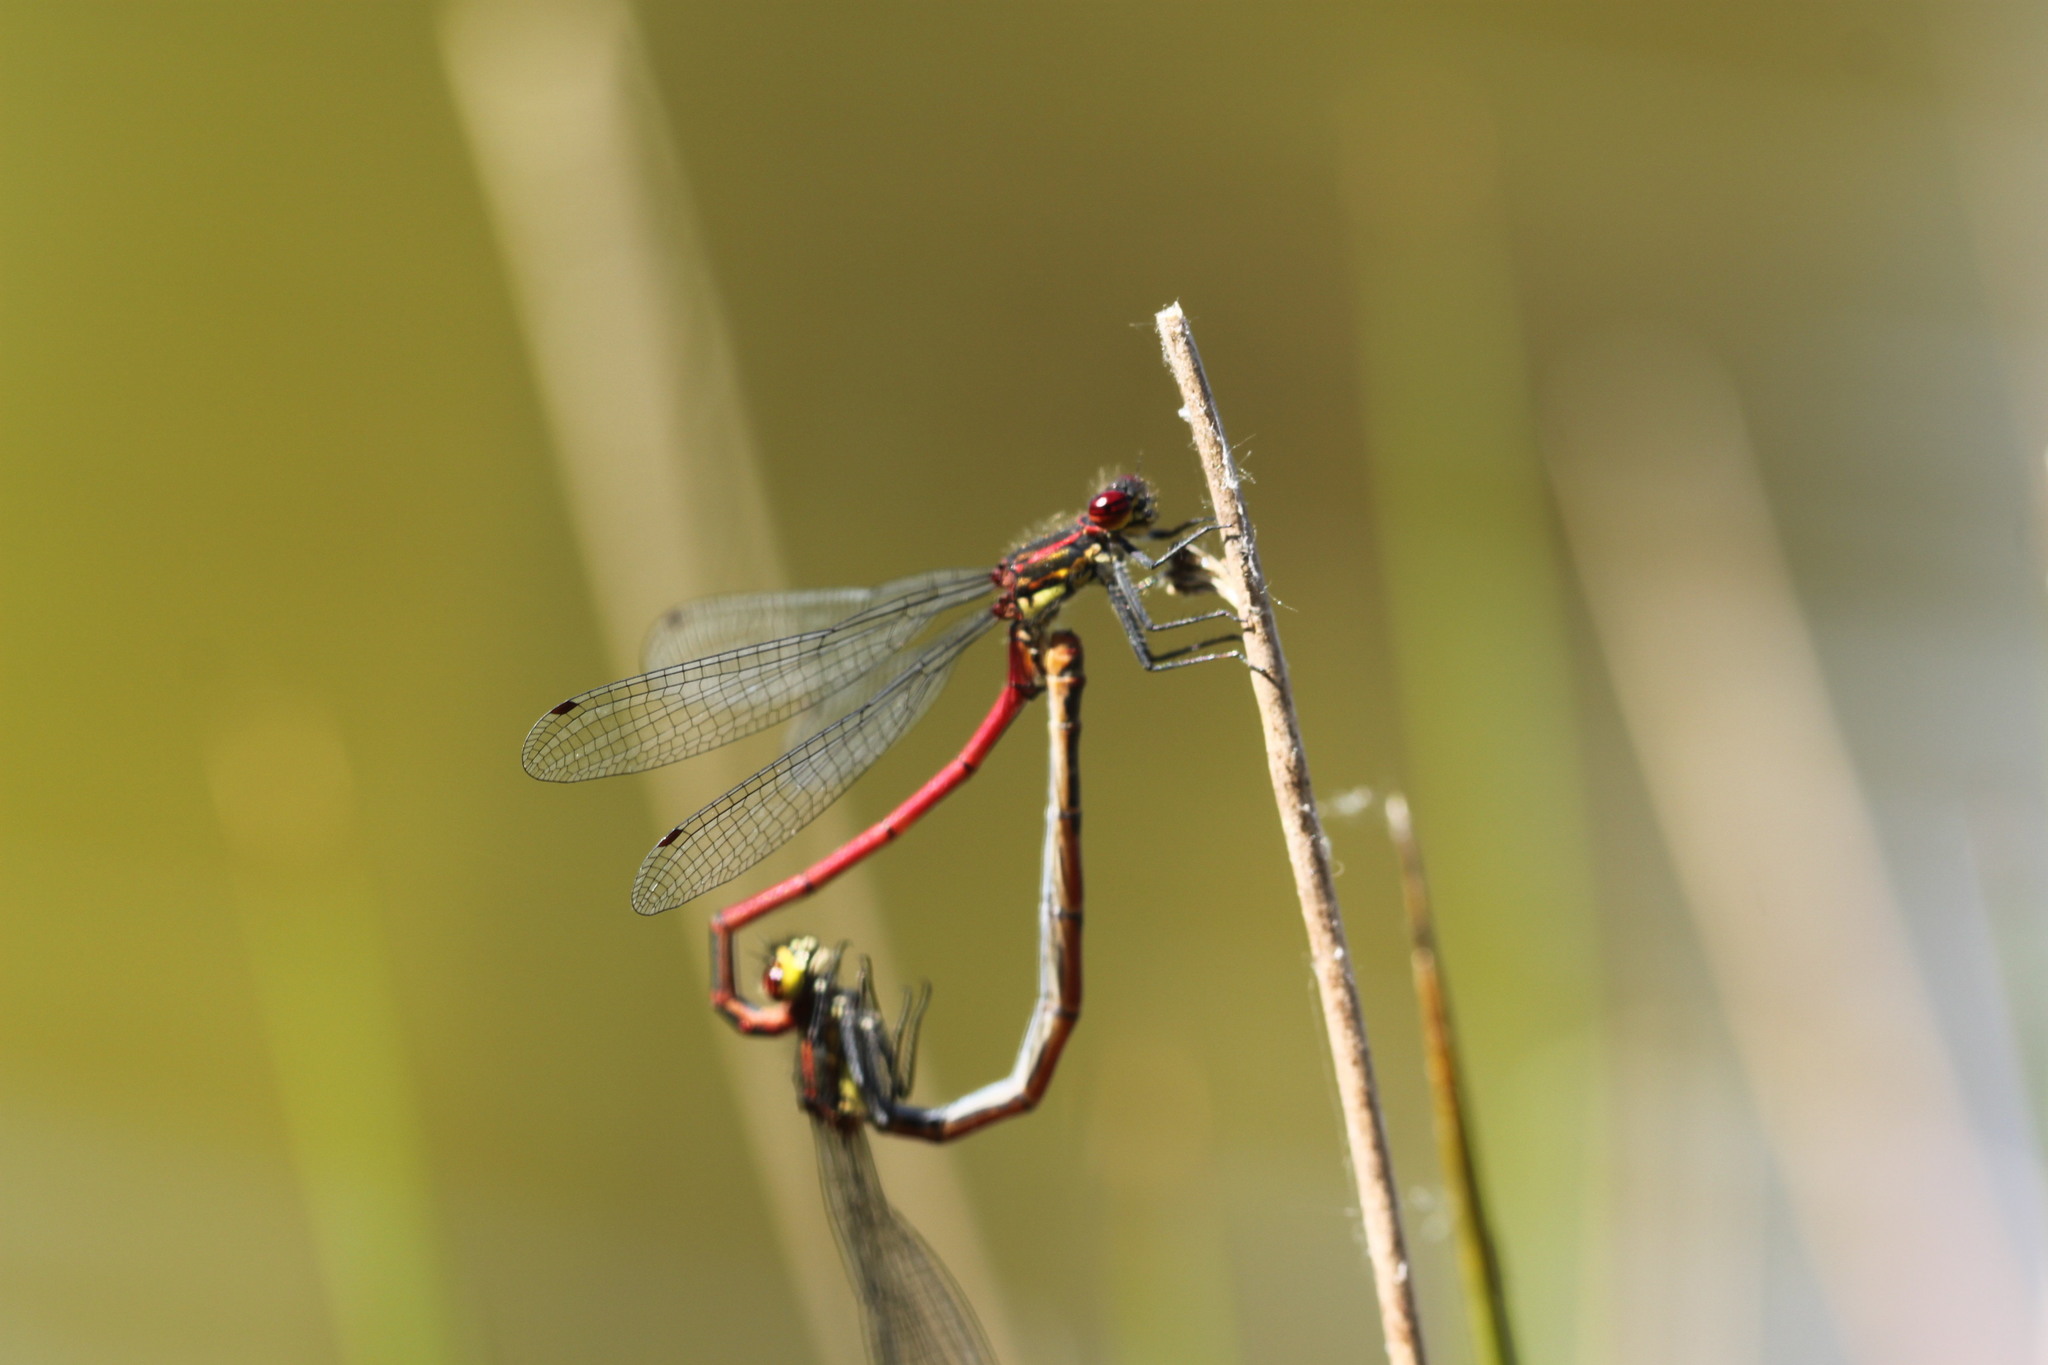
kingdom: Animalia
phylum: Arthropoda
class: Insecta
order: Odonata
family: Coenagrionidae
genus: Pyrrhosoma
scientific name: Pyrrhosoma nymphula
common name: Large red damsel
